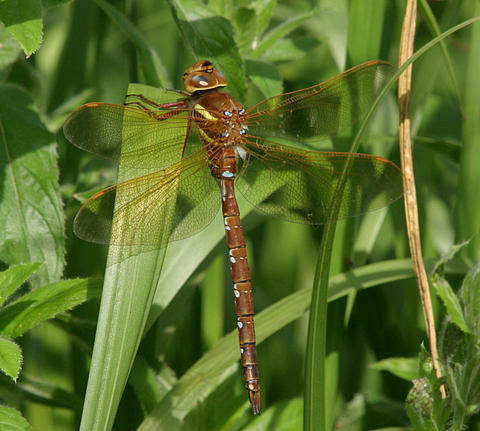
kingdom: Animalia
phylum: Arthropoda
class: Insecta
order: Odonata
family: Aeshnidae
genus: Aeshna
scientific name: Aeshna grandis
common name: Brown hawker
